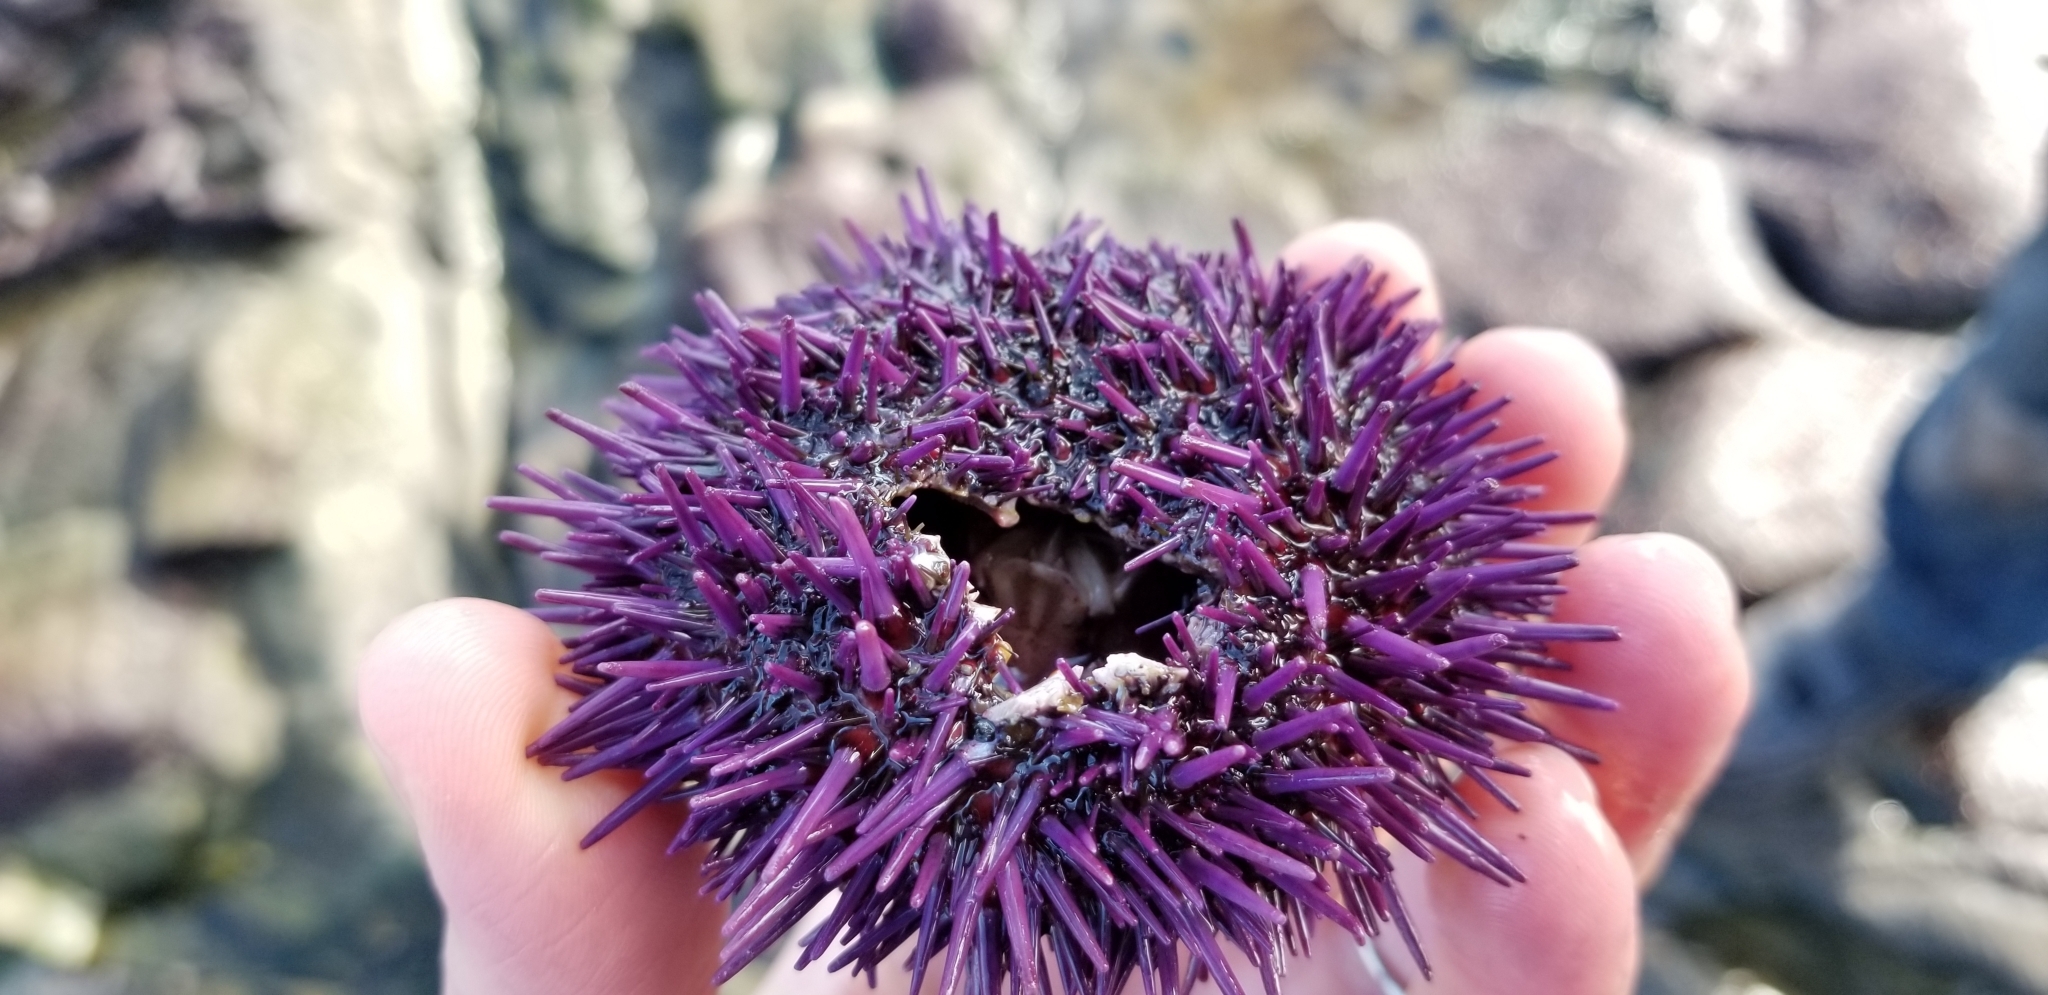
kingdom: Animalia
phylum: Echinodermata
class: Echinoidea
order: Camarodonta
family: Strongylocentrotidae
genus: Strongylocentrotus
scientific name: Strongylocentrotus purpuratus
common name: Purple sea urchin
